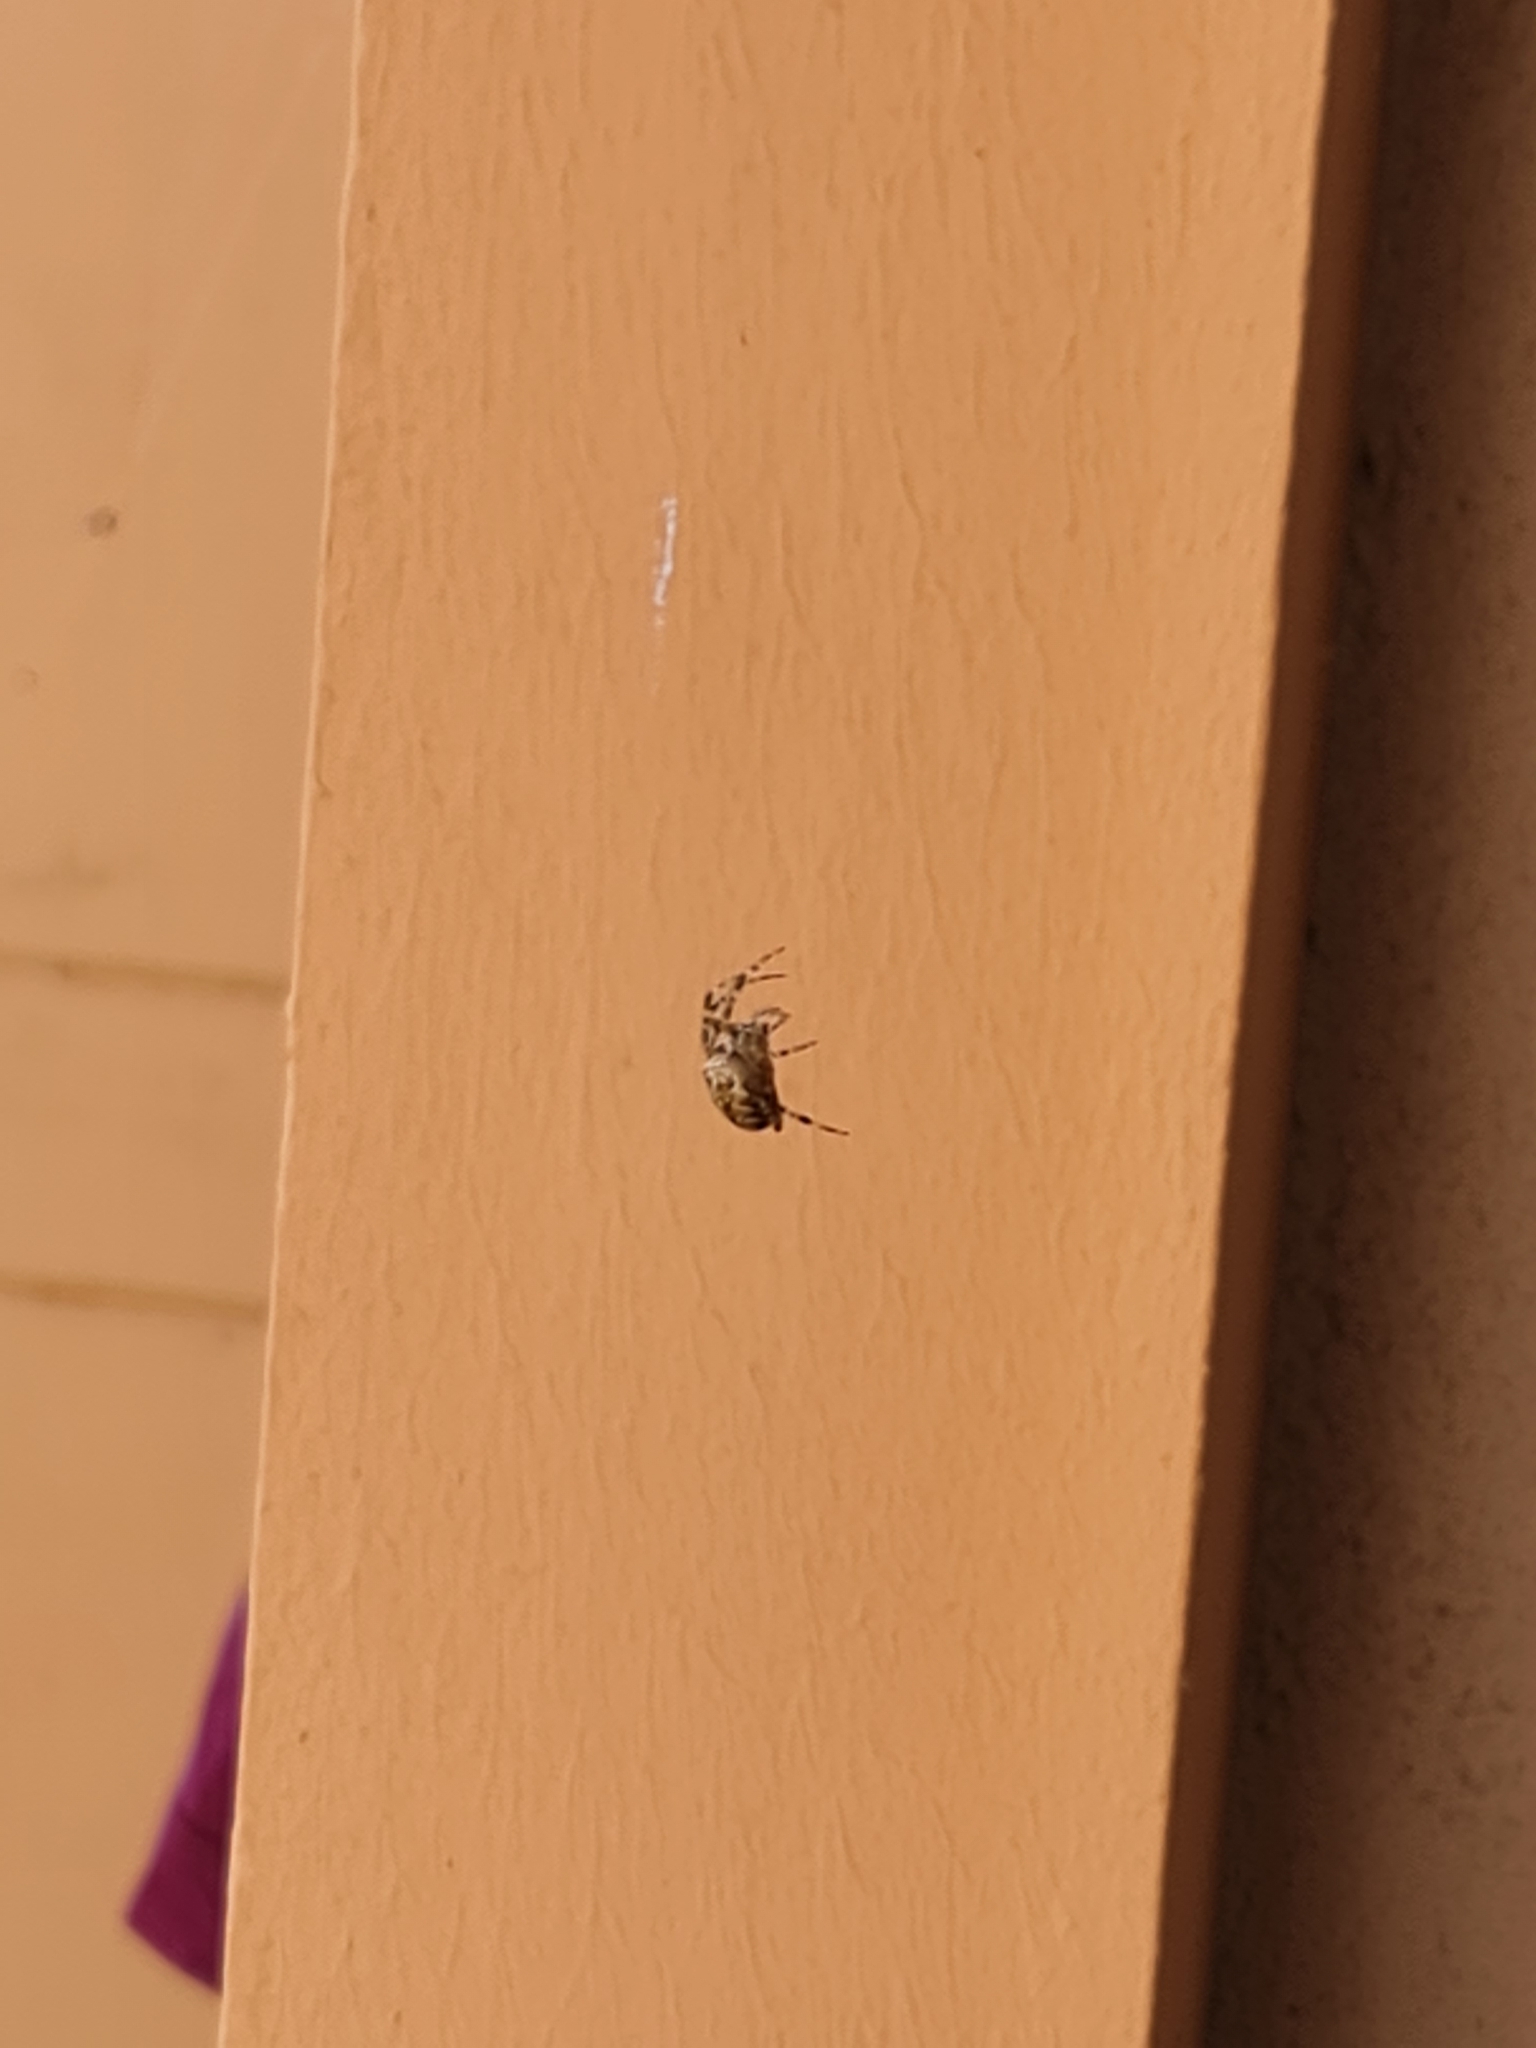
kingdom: Animalia
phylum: Arthropoda
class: Arachnida
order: Araneae
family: Araneidae
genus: Araneus
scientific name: Araneus diadematus
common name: Cross orbweaver
